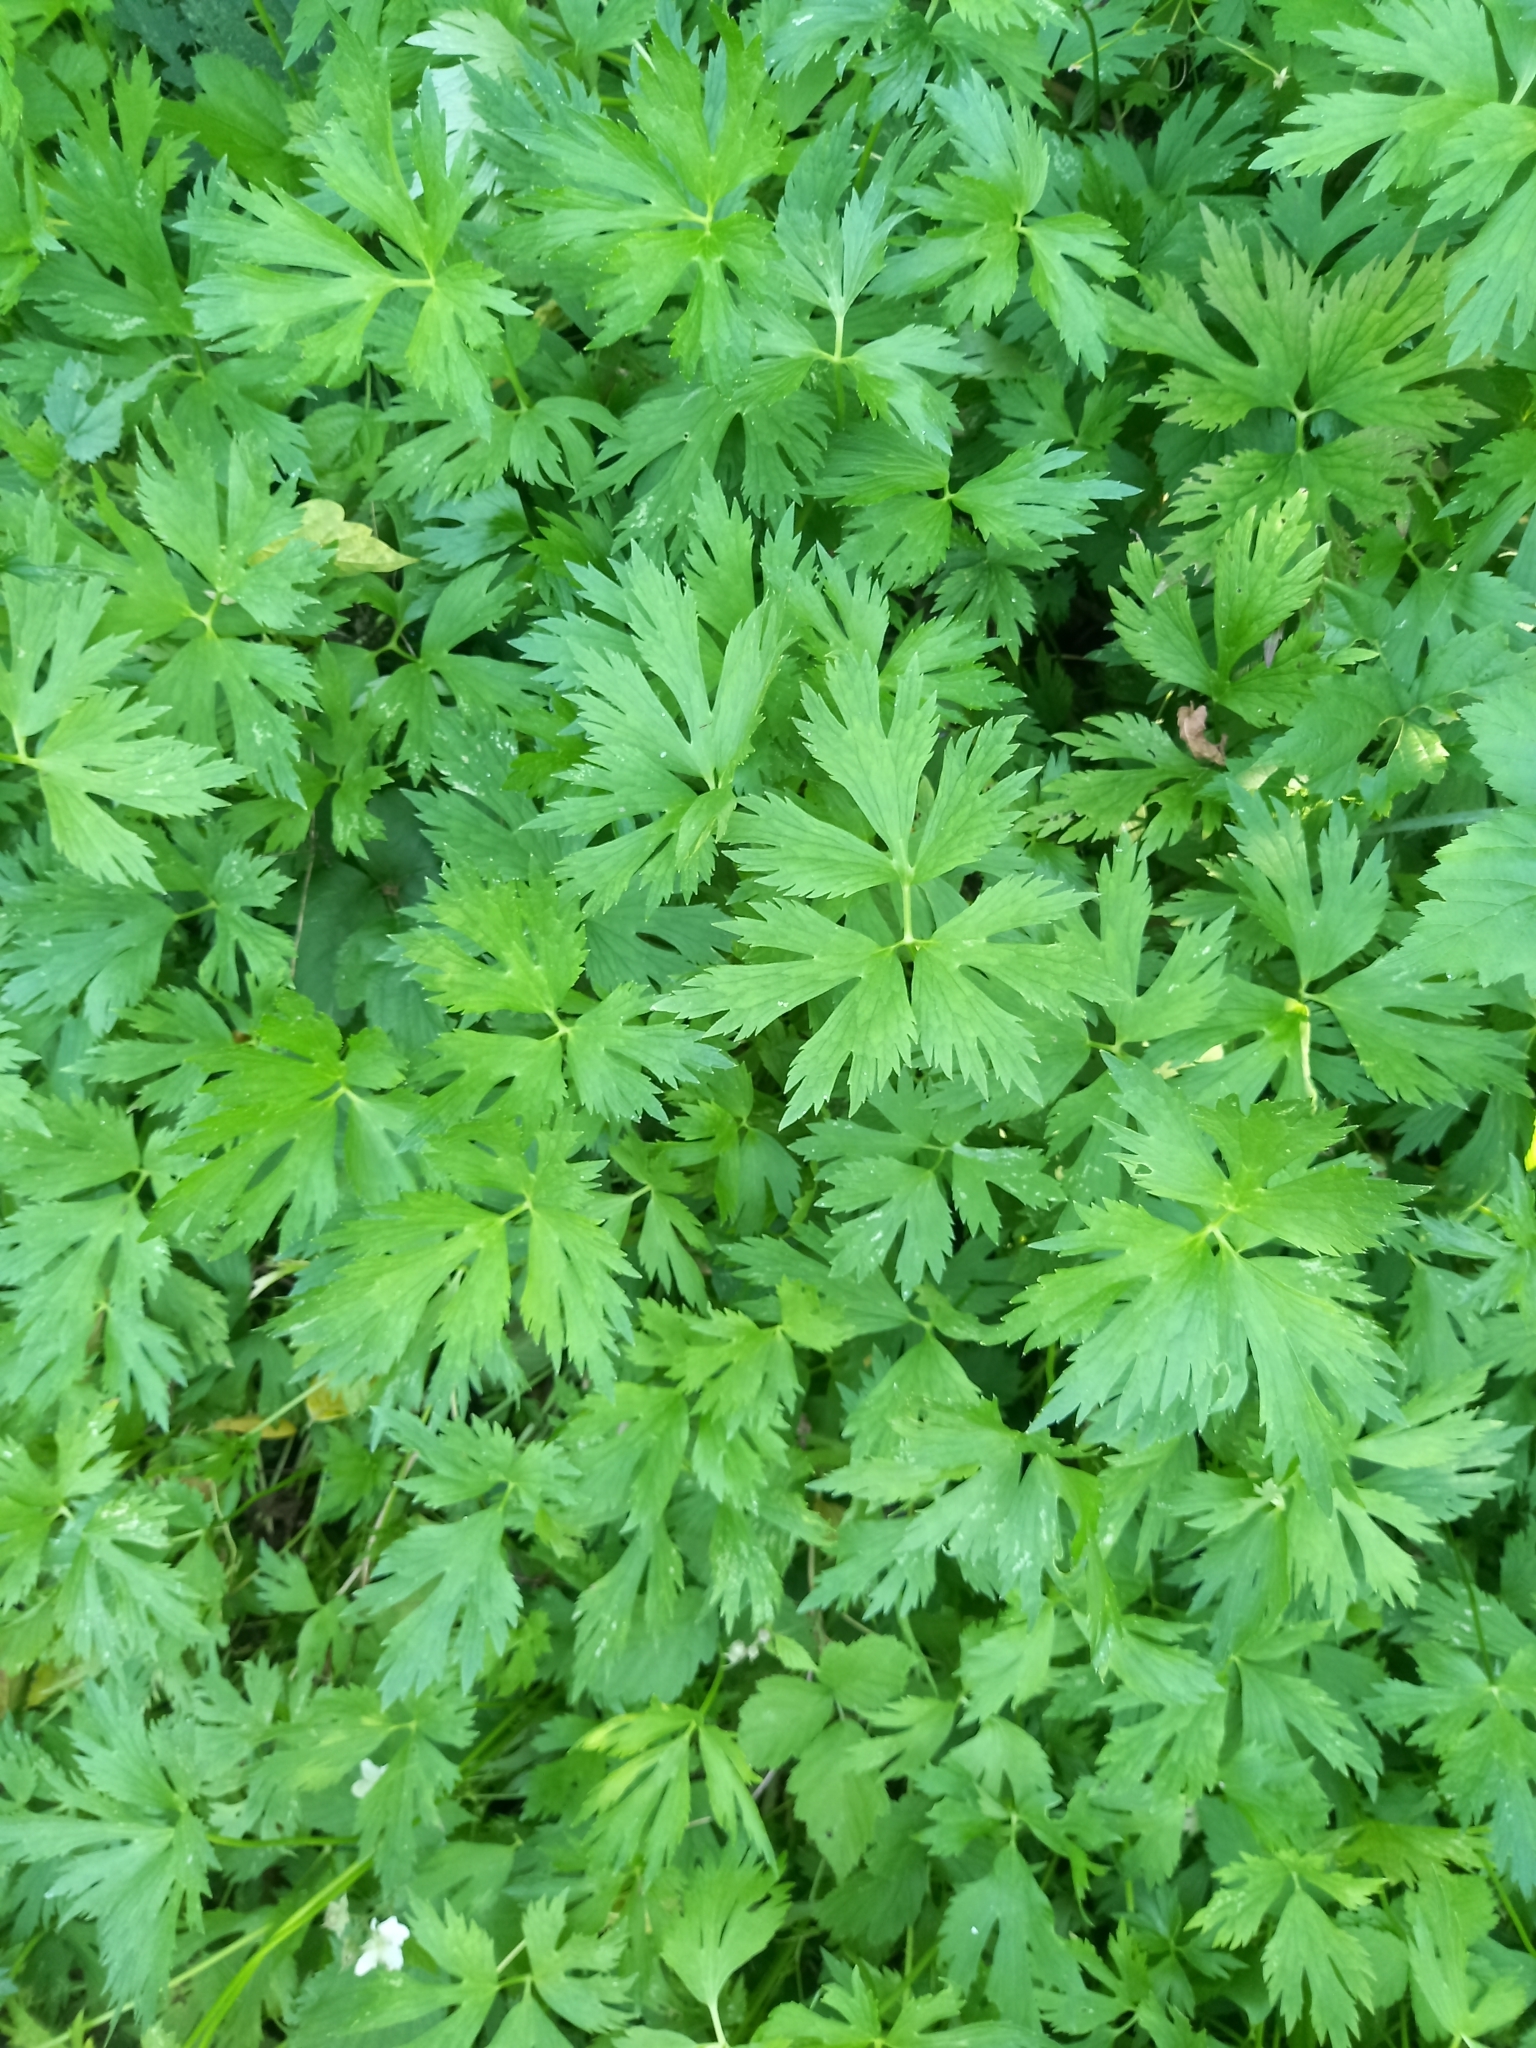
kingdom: Plantae
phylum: Tracheophyta
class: Magnoliopsida
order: Ranunculales
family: Ranunculaceae
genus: Ranunculus
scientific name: Ranunculus repens
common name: Creeping buttercup
